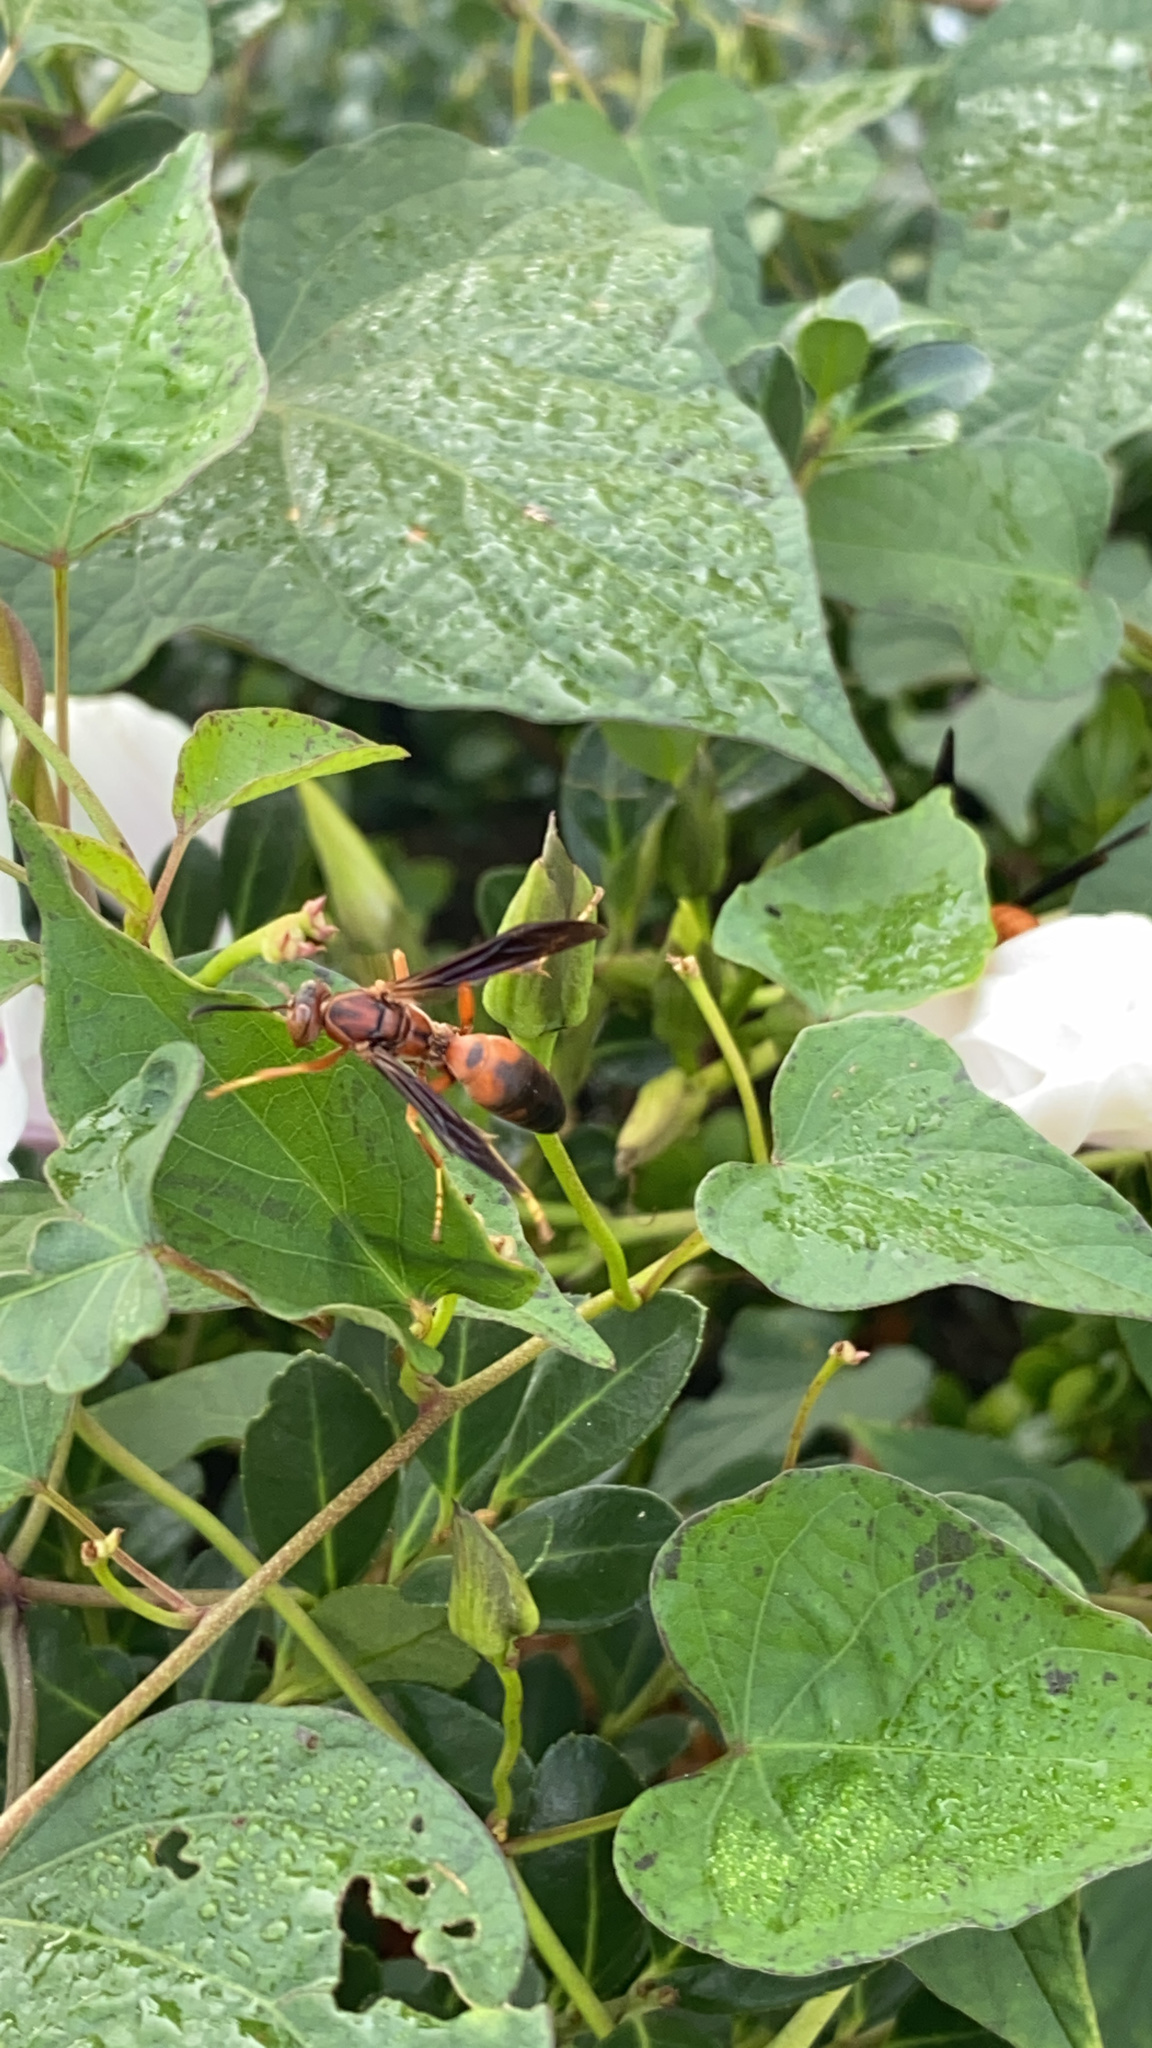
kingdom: Animalia
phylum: Arthropoda
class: Insecta
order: Hymenoptera
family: Eumenidae
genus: Polistes
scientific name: Polistes metricus
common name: Metric paper wasp
